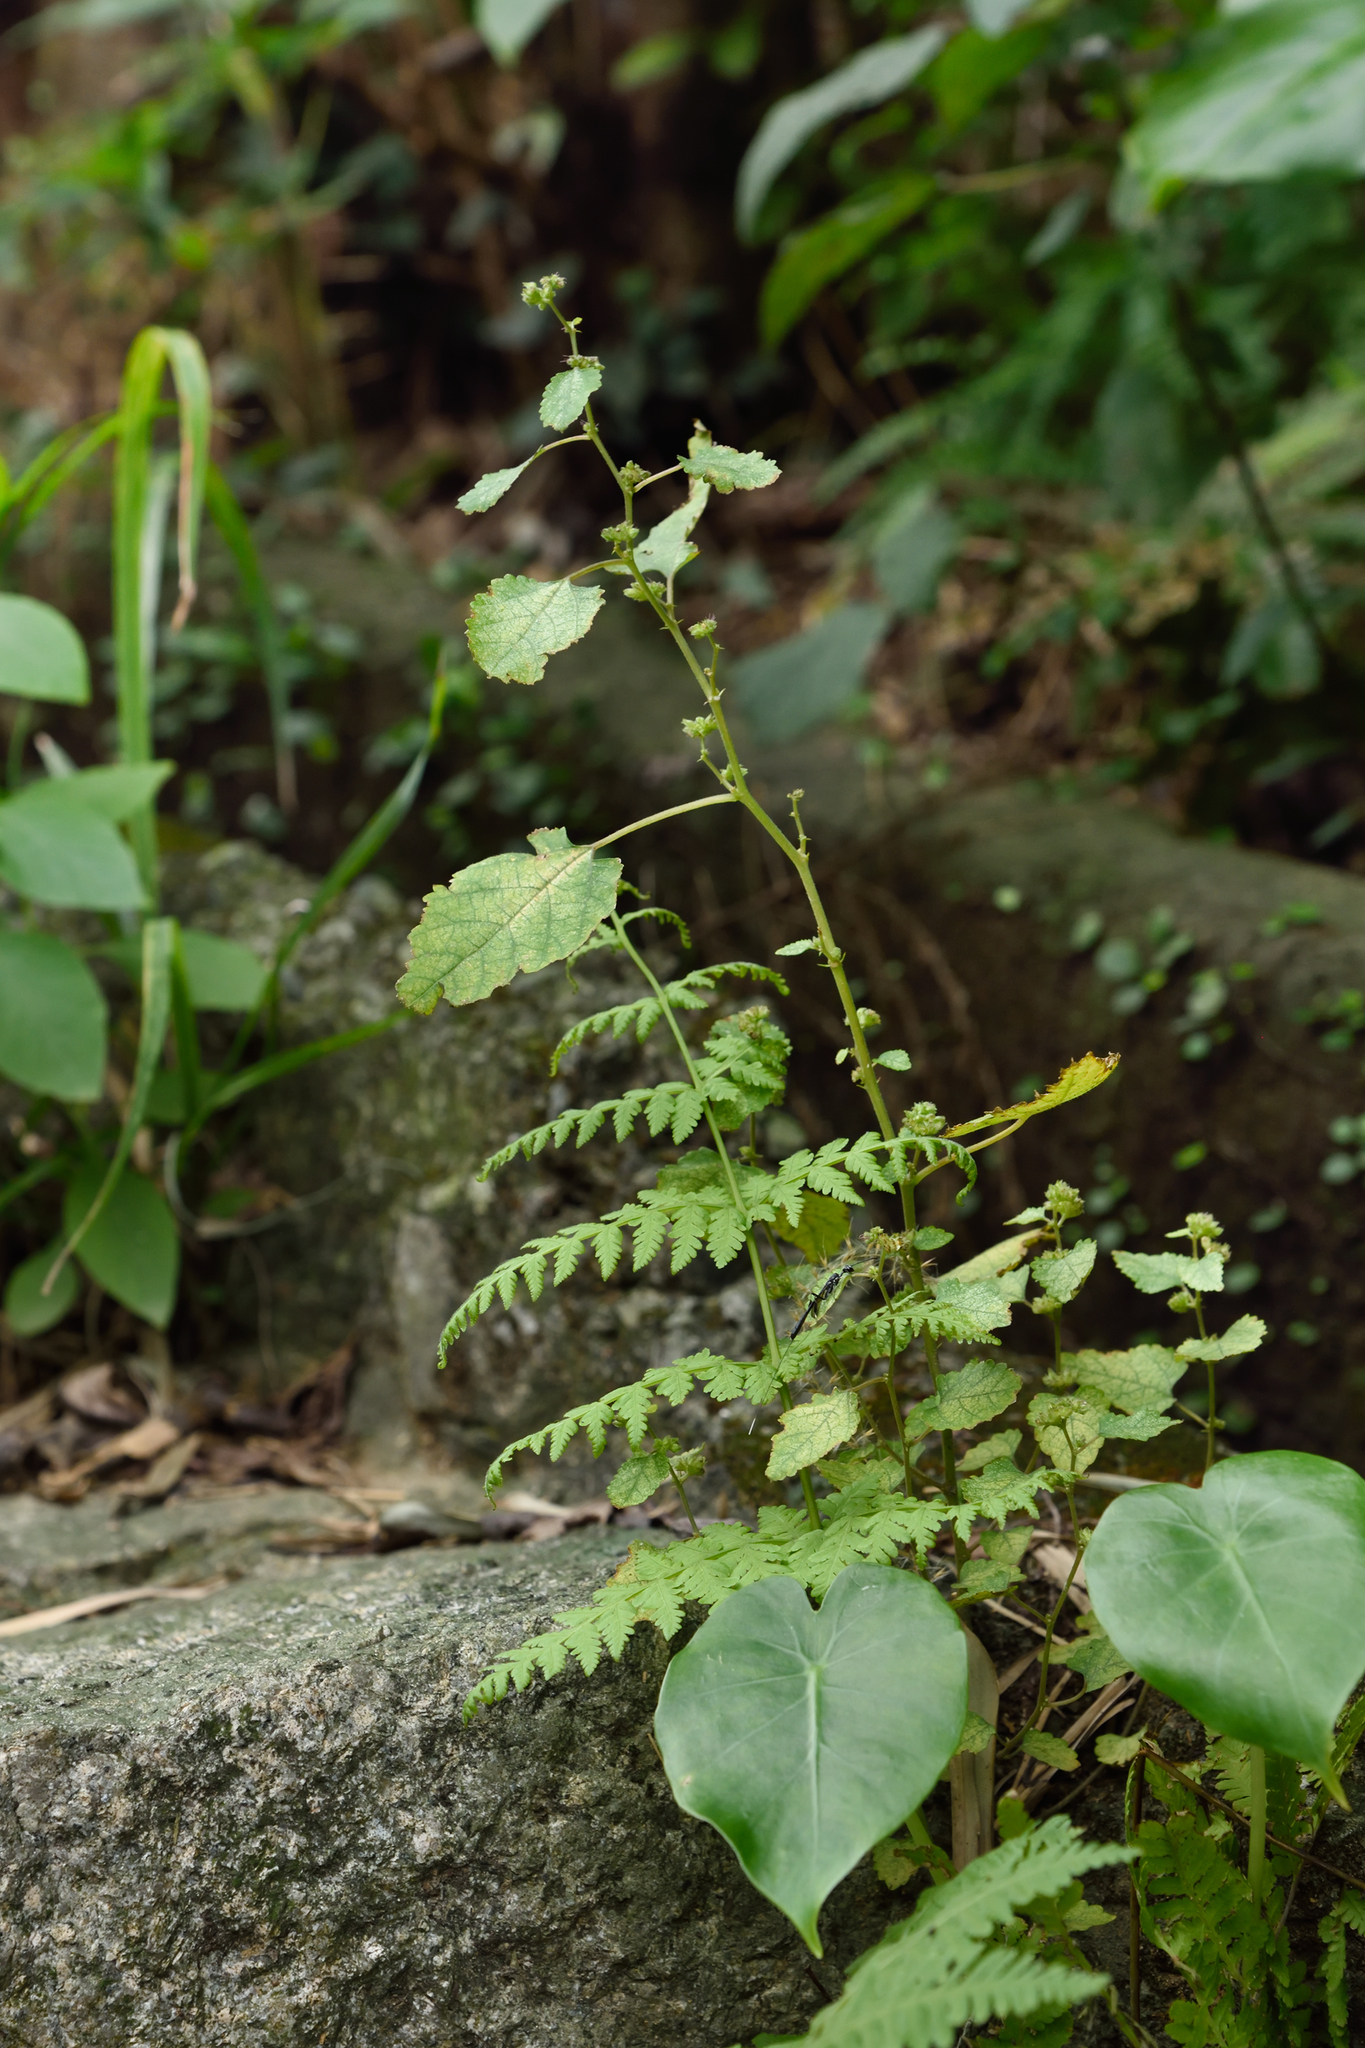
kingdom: Plantae
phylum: Tracheophyta
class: Magnoliopsida
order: Rosales
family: Moraceae
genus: Fatoua
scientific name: Fatoua villosa
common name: Hairy crabweed
